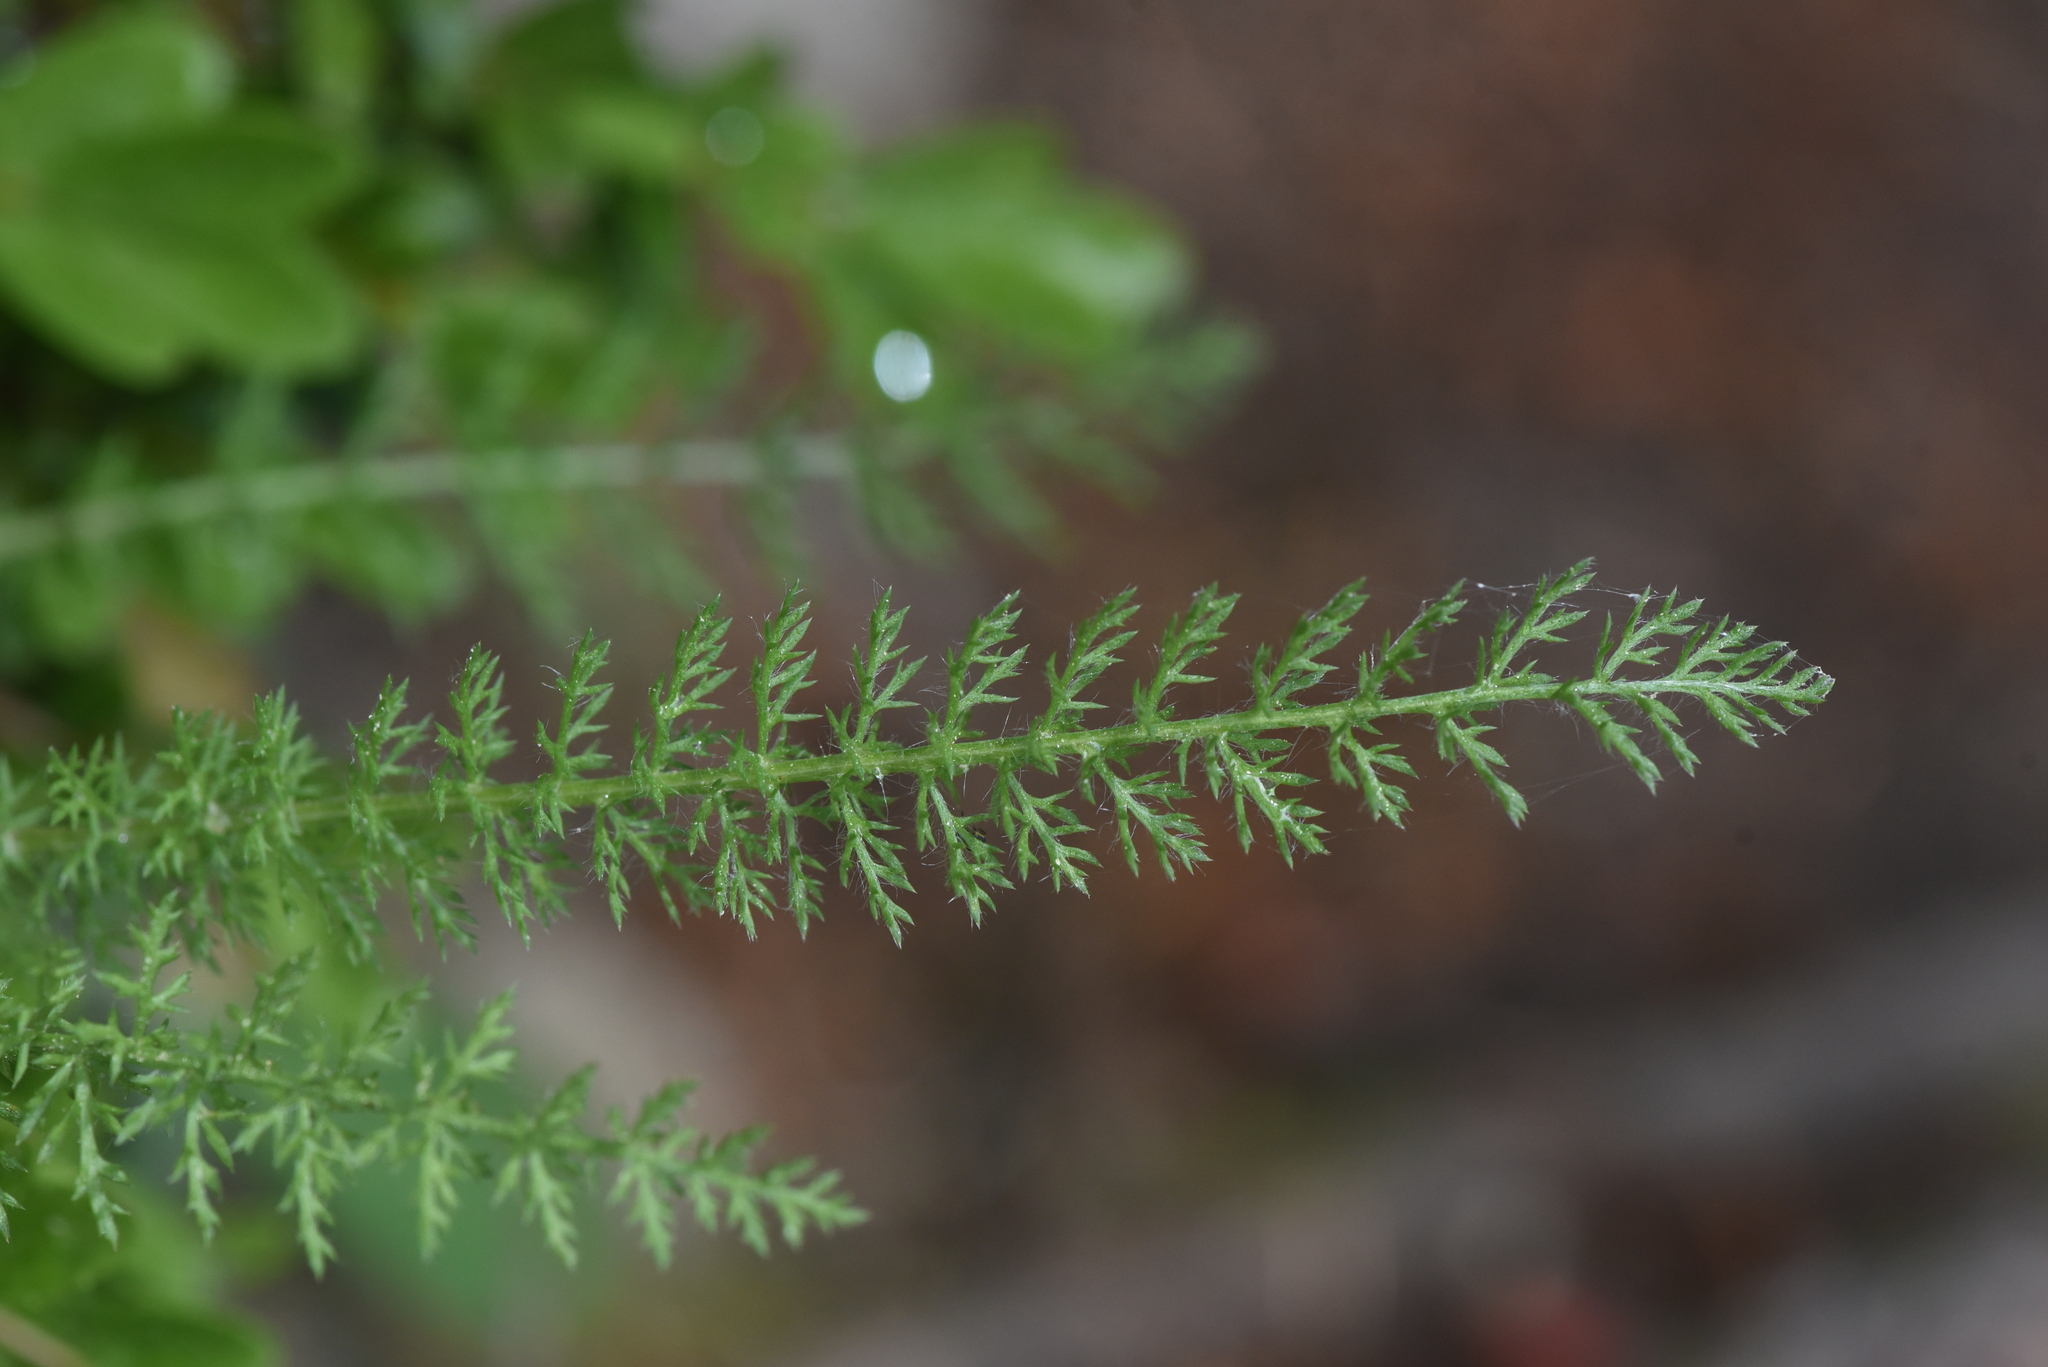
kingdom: Plantae
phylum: Tracheophyta
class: Magnoliopsida
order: Asterales
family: Asteraceae
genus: Achillea
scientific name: Achillea millefolium
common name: Yarrow
